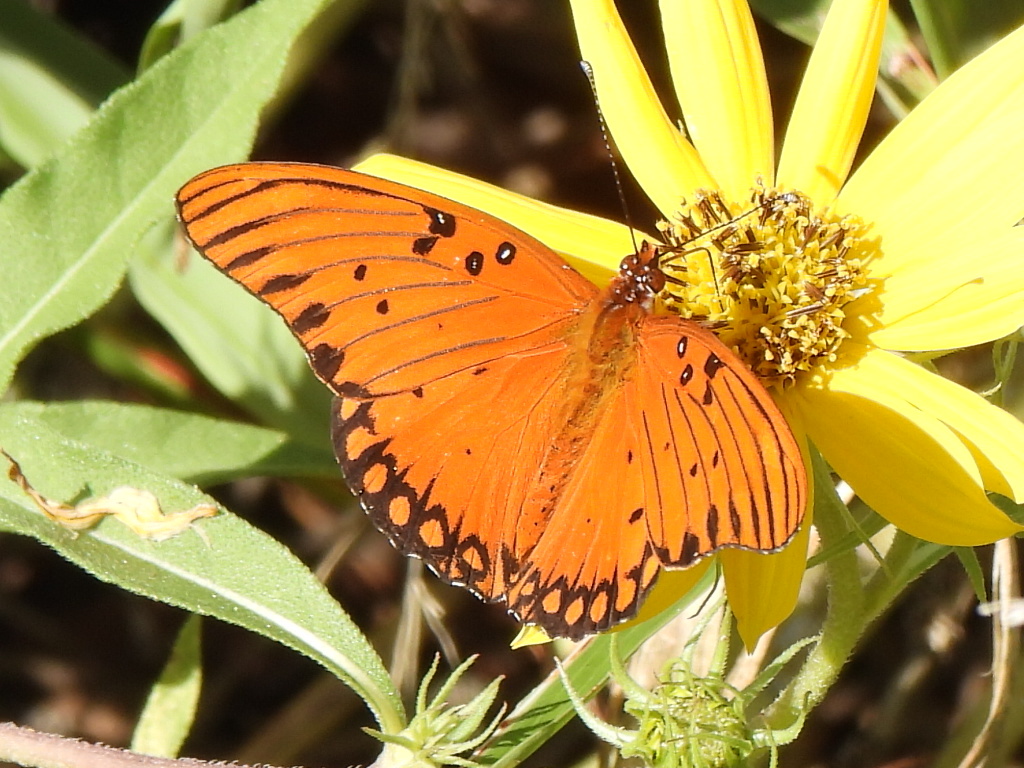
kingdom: Animalia
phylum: Arthropoda
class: Insecta
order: Lepidoptera
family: Nymphalidae
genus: Dione
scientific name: Dione vanillae
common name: Gulf fritillary
